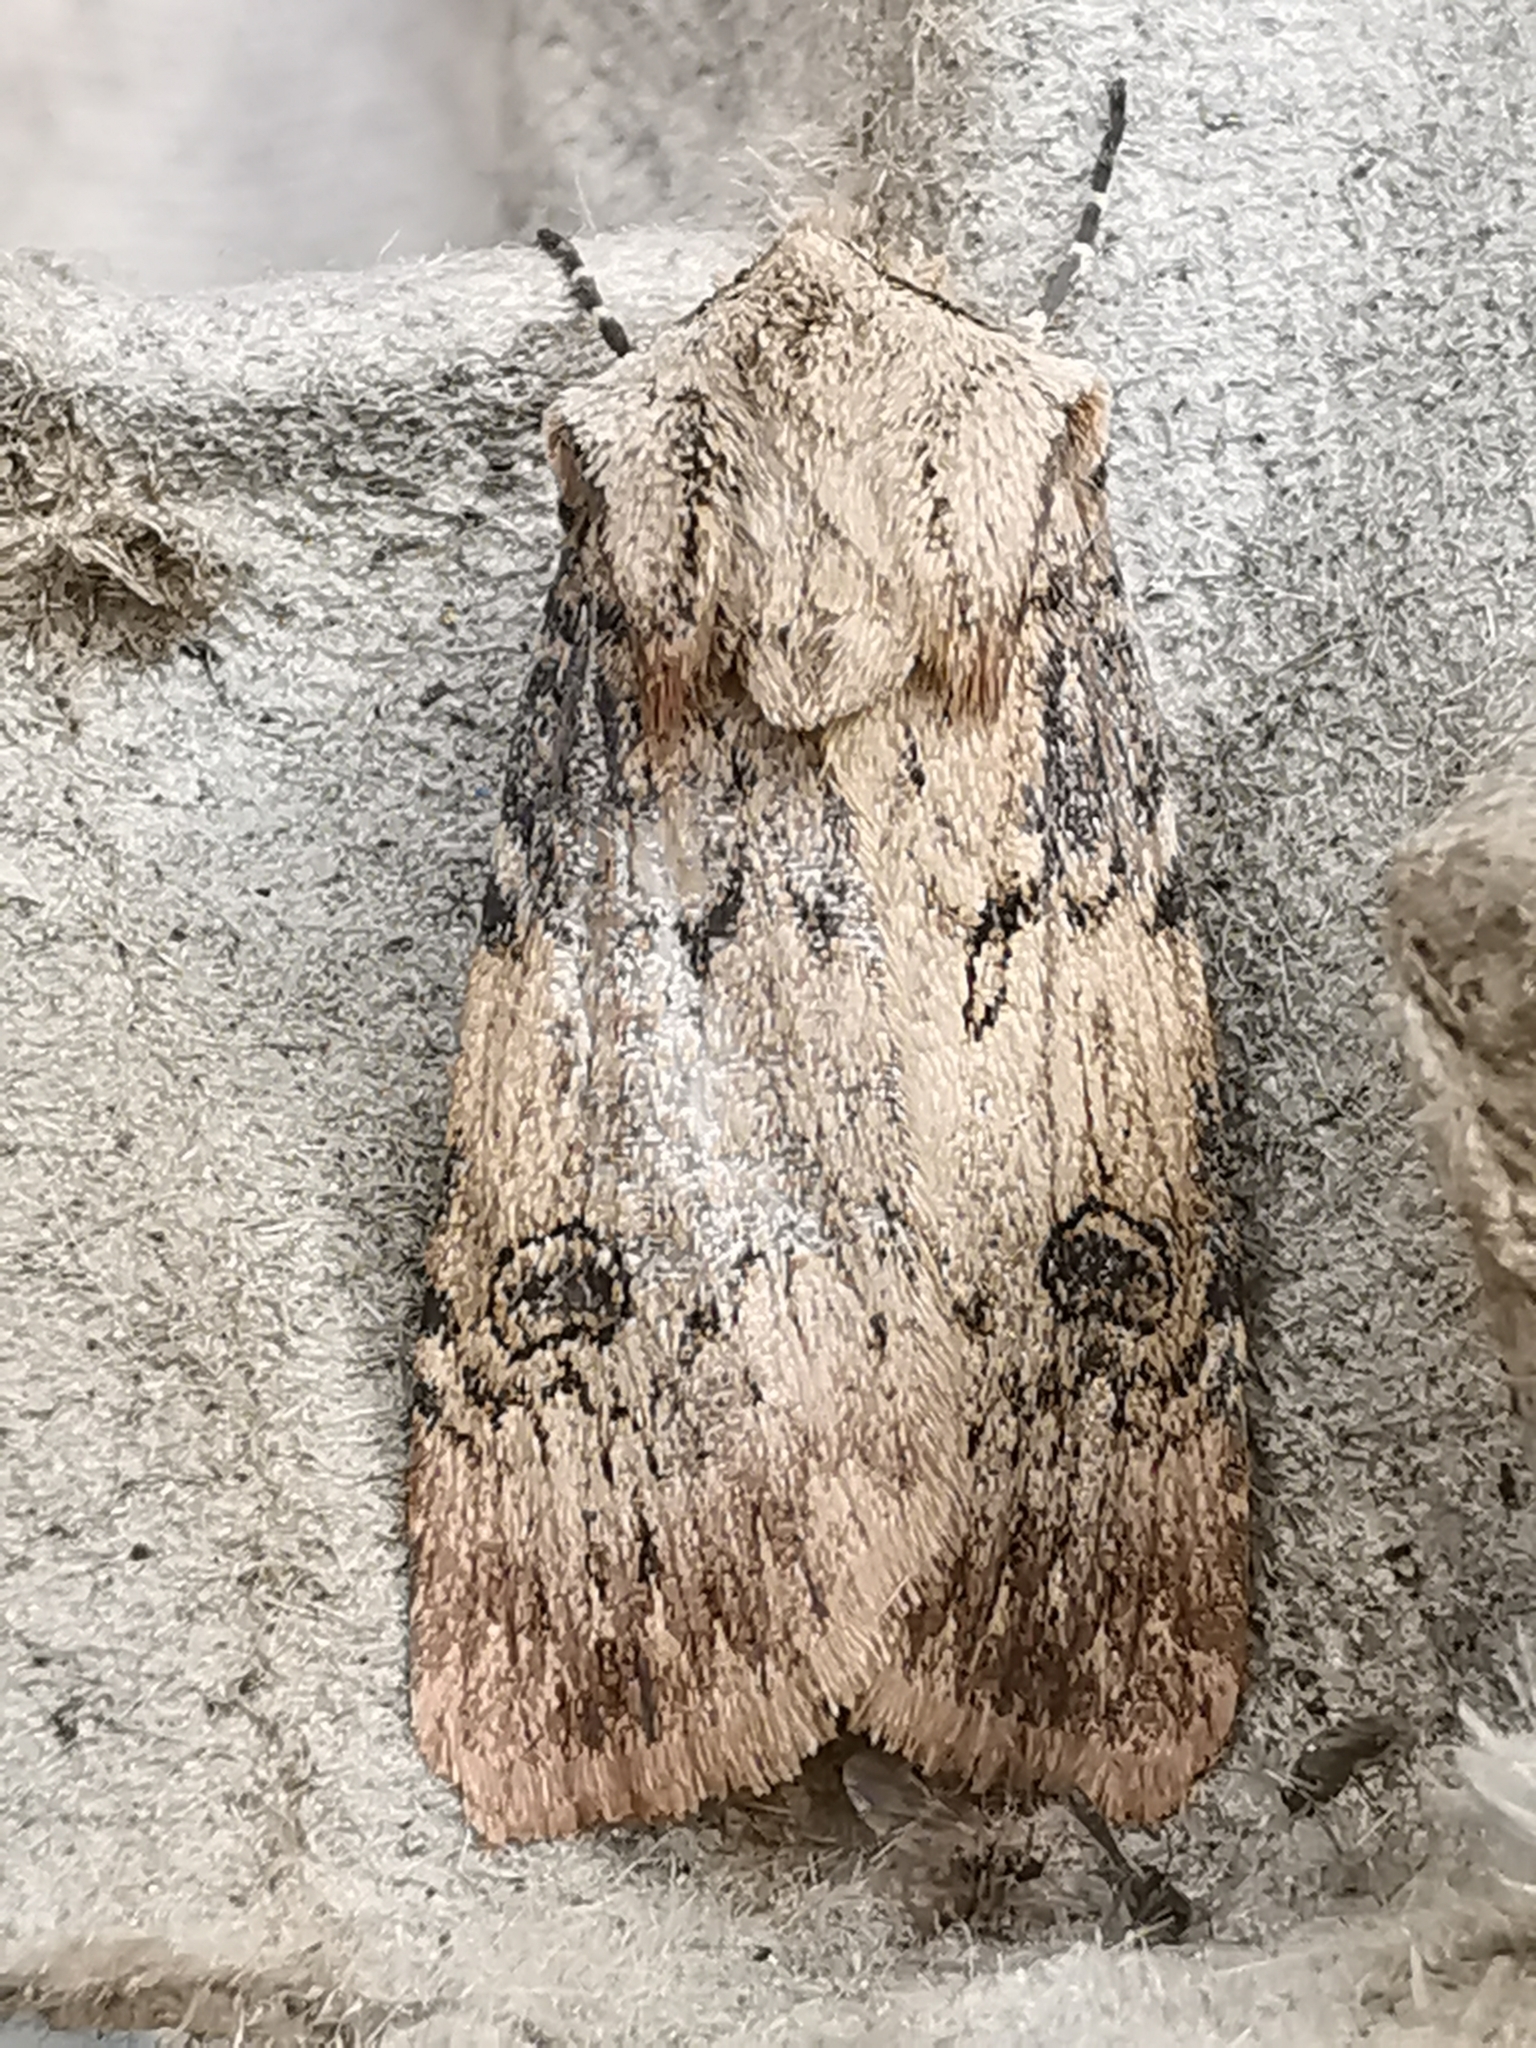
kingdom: Animalia
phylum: Arthropoda
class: Insecta
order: Lepidoptera
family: Noctuidae
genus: Agrotis
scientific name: Agrotis puta
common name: Shuttle-shaped dart
